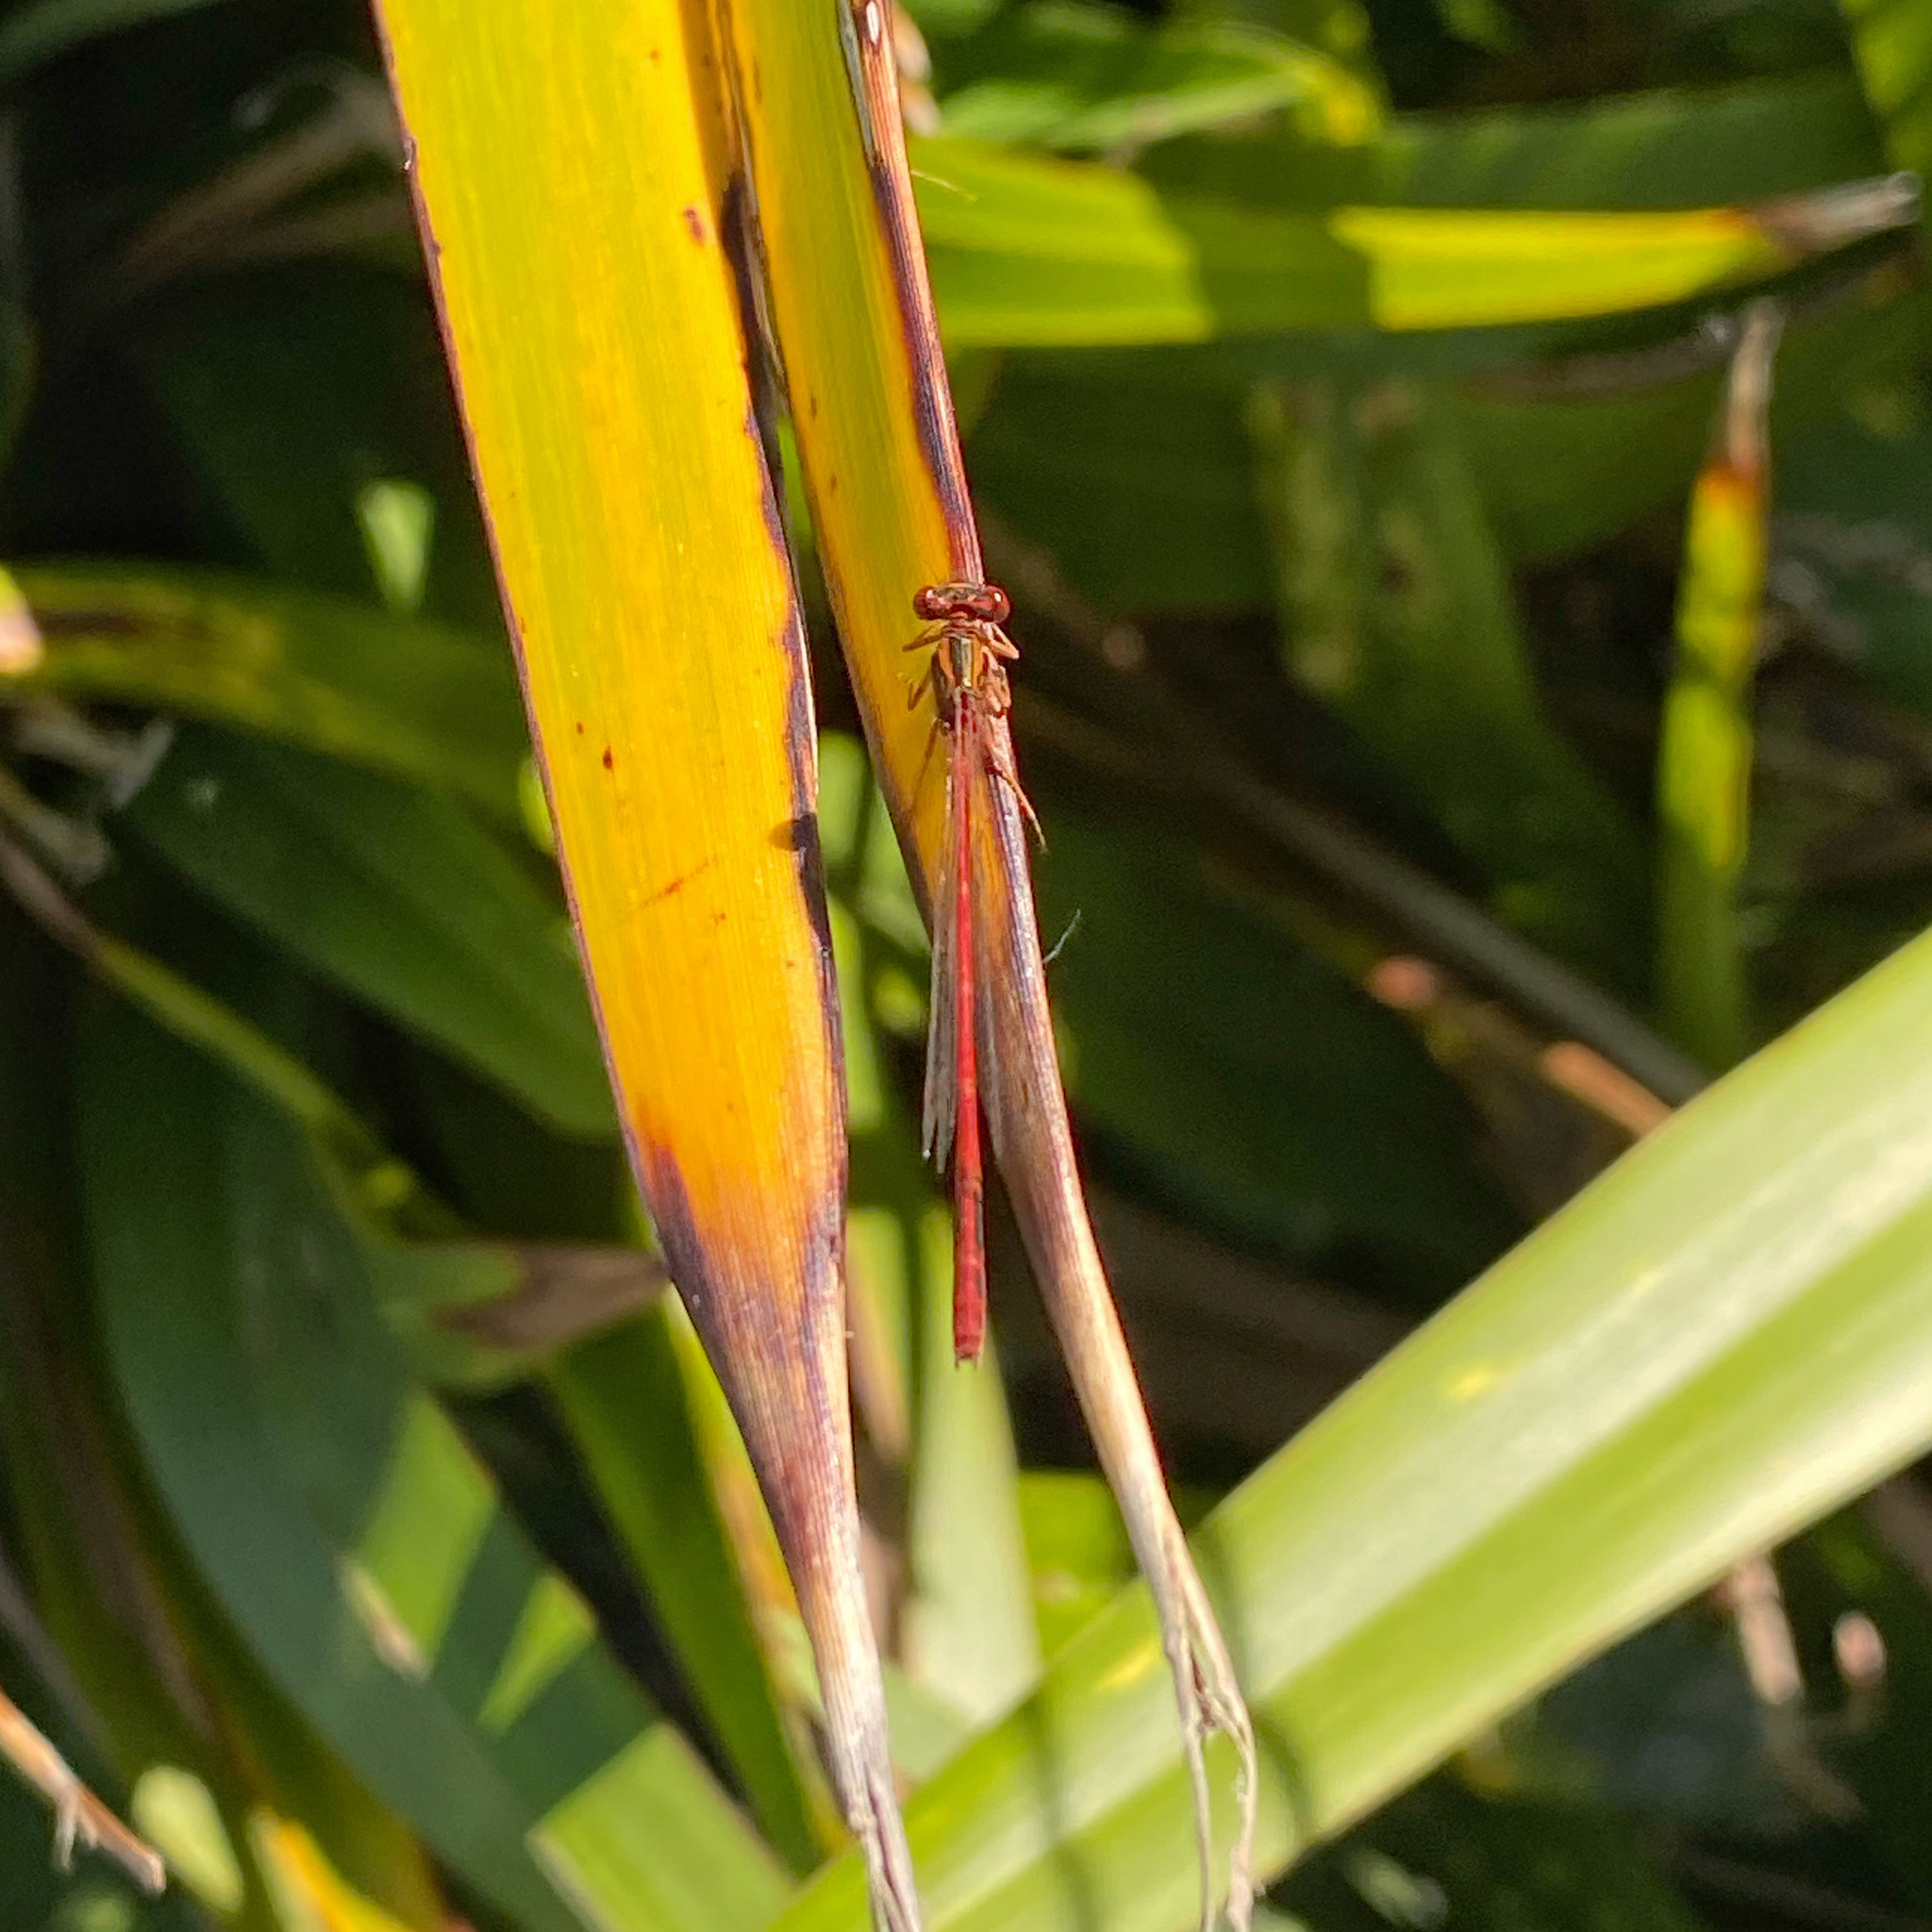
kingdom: Animalia
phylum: Arthropoda
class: Insecta
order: Odonata
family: Coenagrionidae
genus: Xanthocnemis
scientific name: Xanthocnemis zealandica
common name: Common redcoat damselfly
